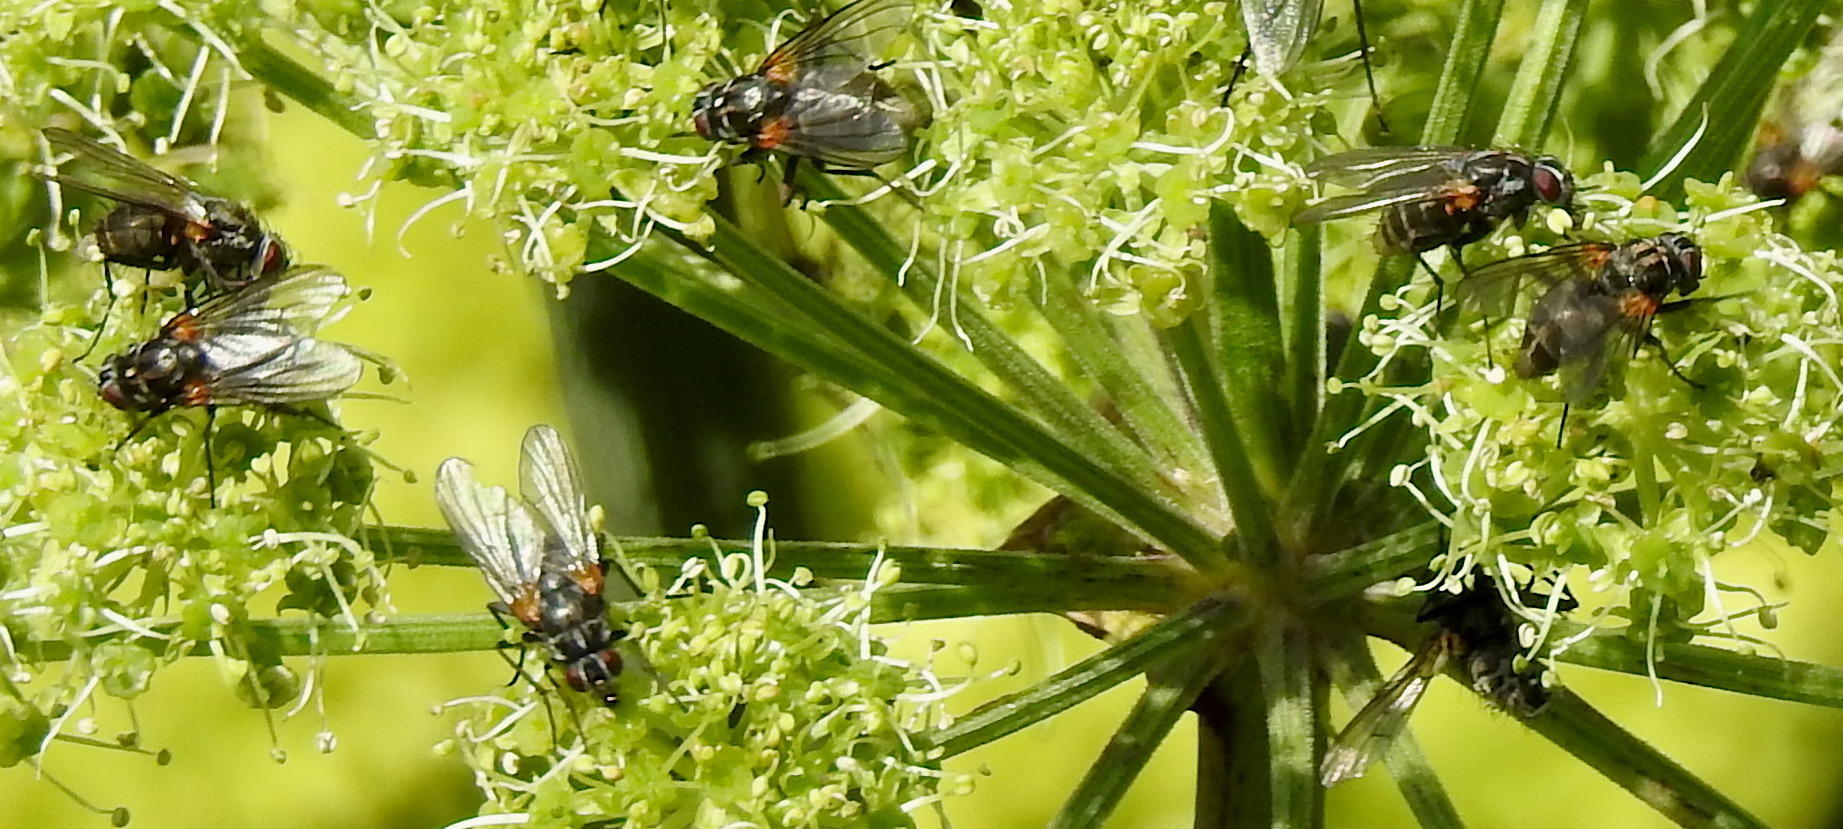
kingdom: Animalia
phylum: Arthropoda
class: Insecta
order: Diptera
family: Muscidae
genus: Thricops
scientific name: Thricops longipes
